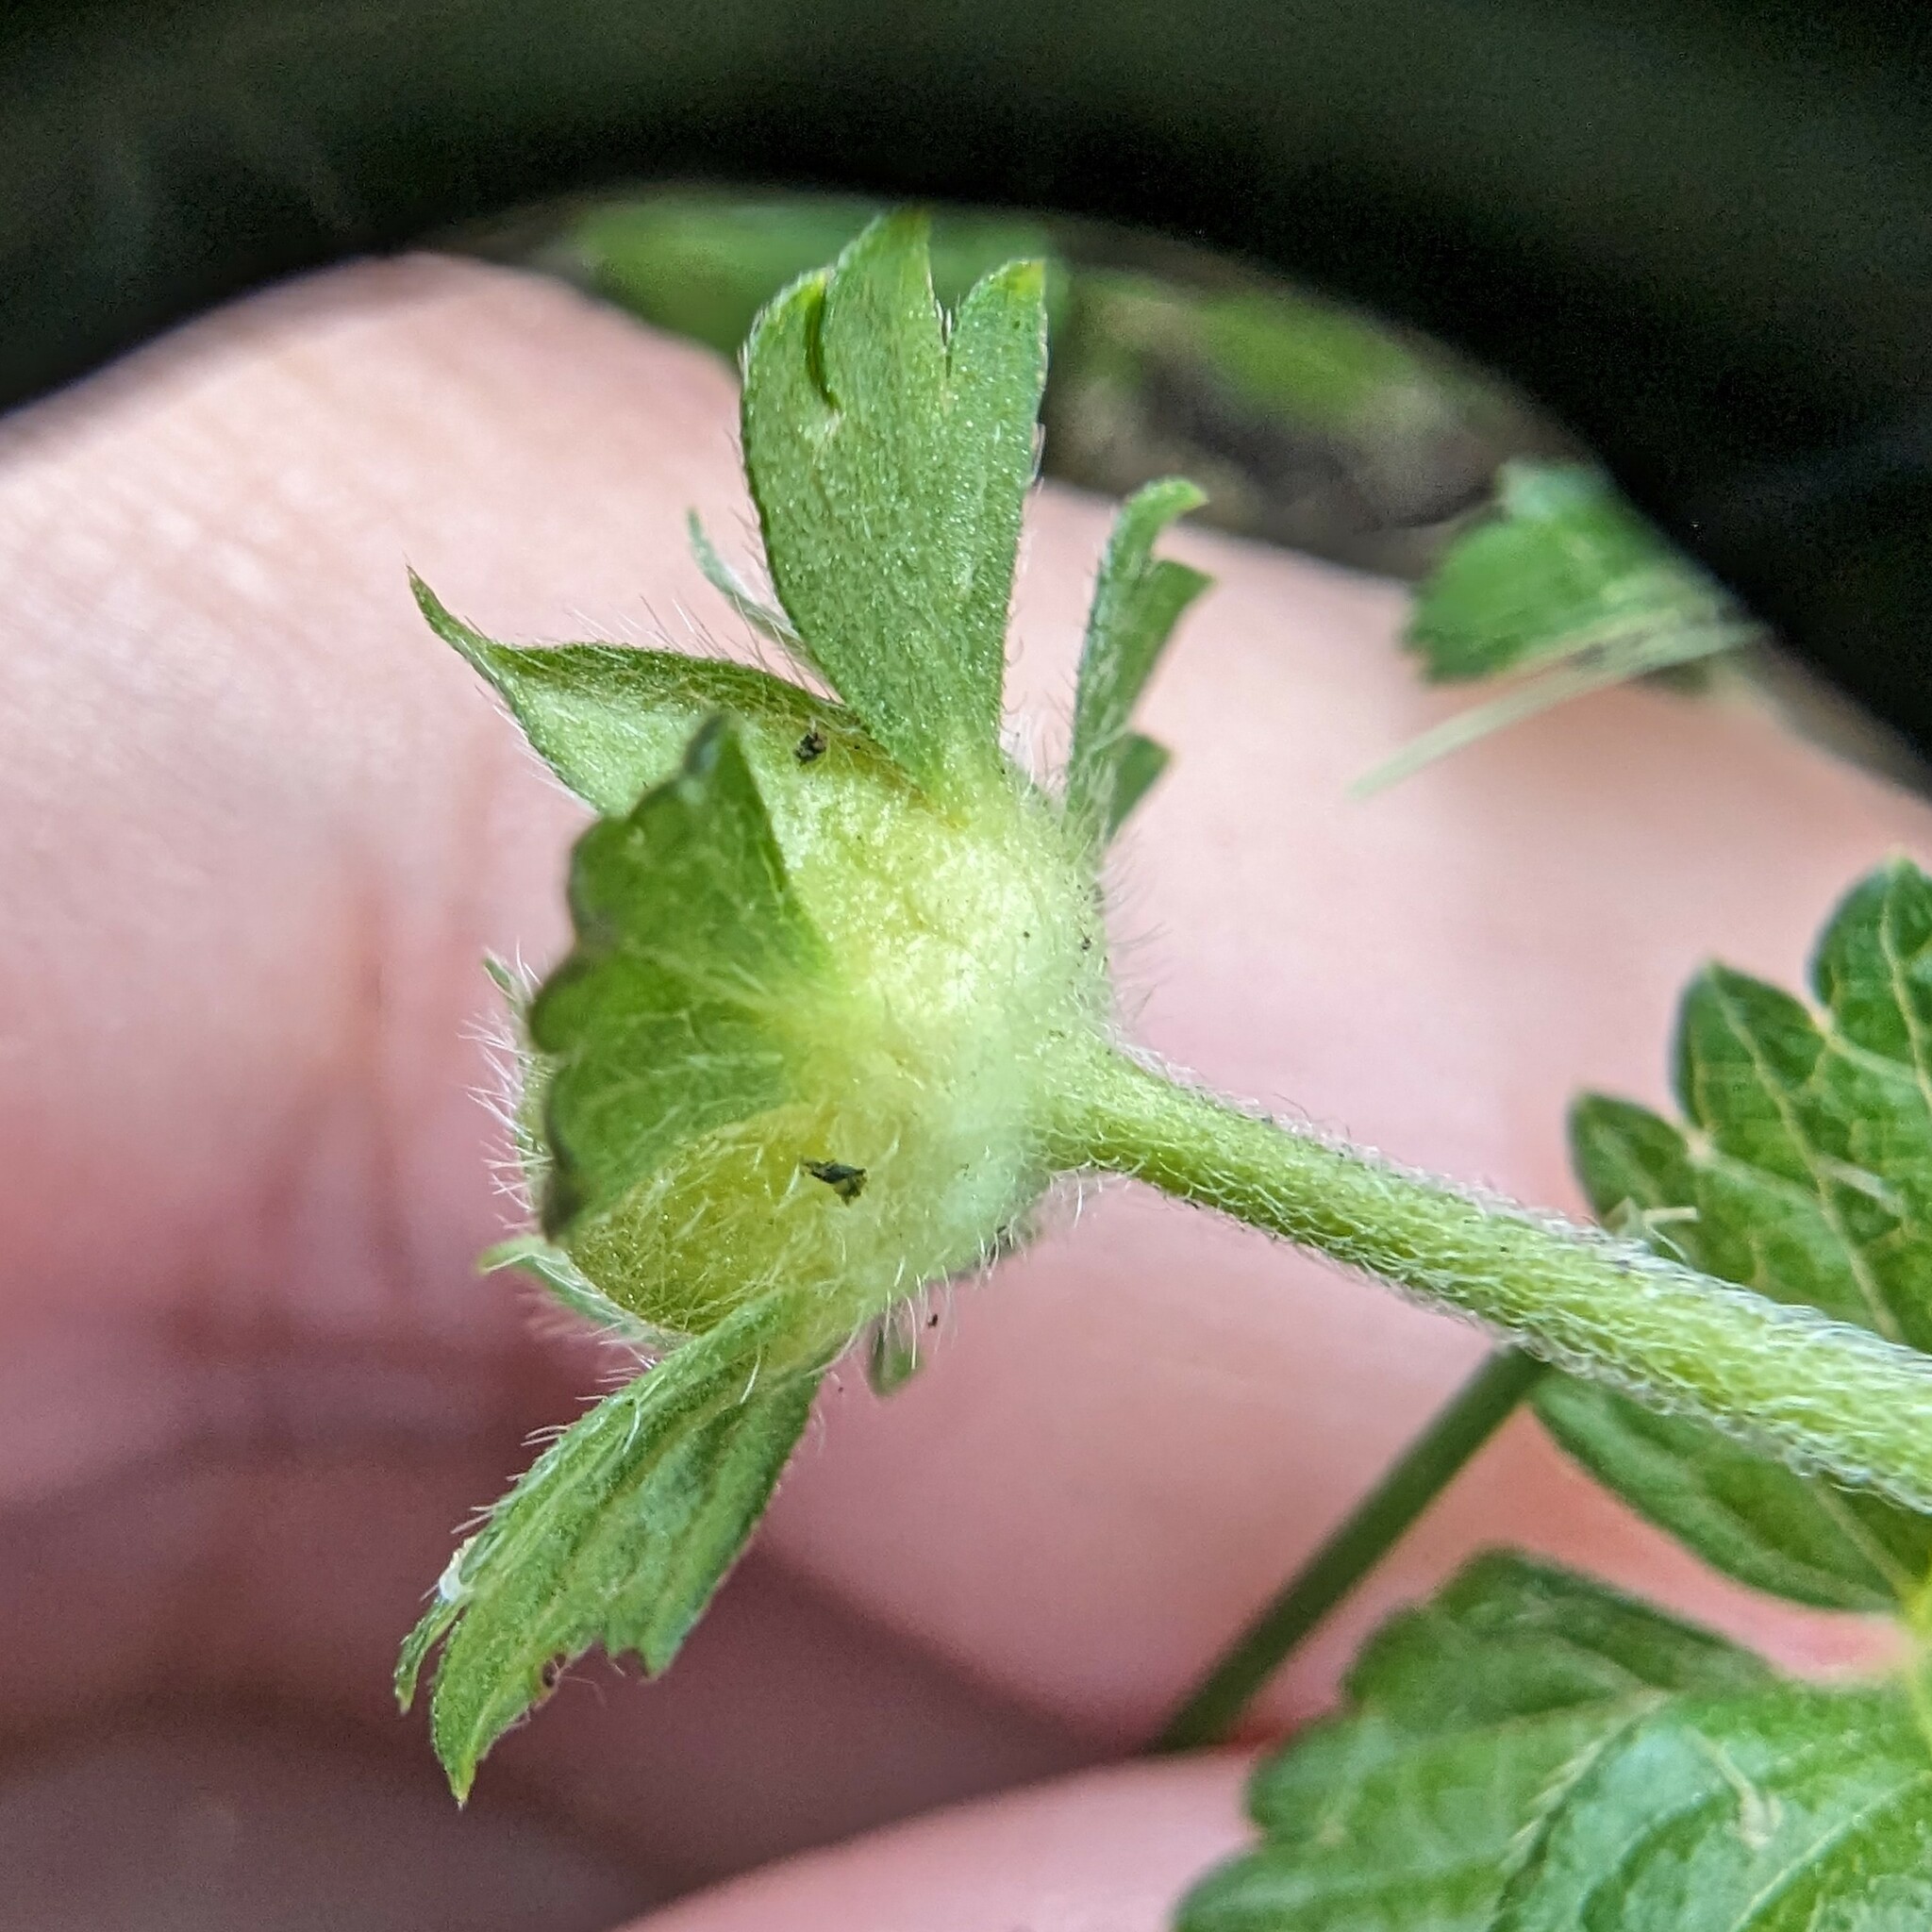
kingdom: Plantae
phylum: Tracheophyta
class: Magnoliopsida
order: Rosales
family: Rosaceae
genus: Potentilla
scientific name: Potentilla indica
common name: Yellow-flowered strawberry
